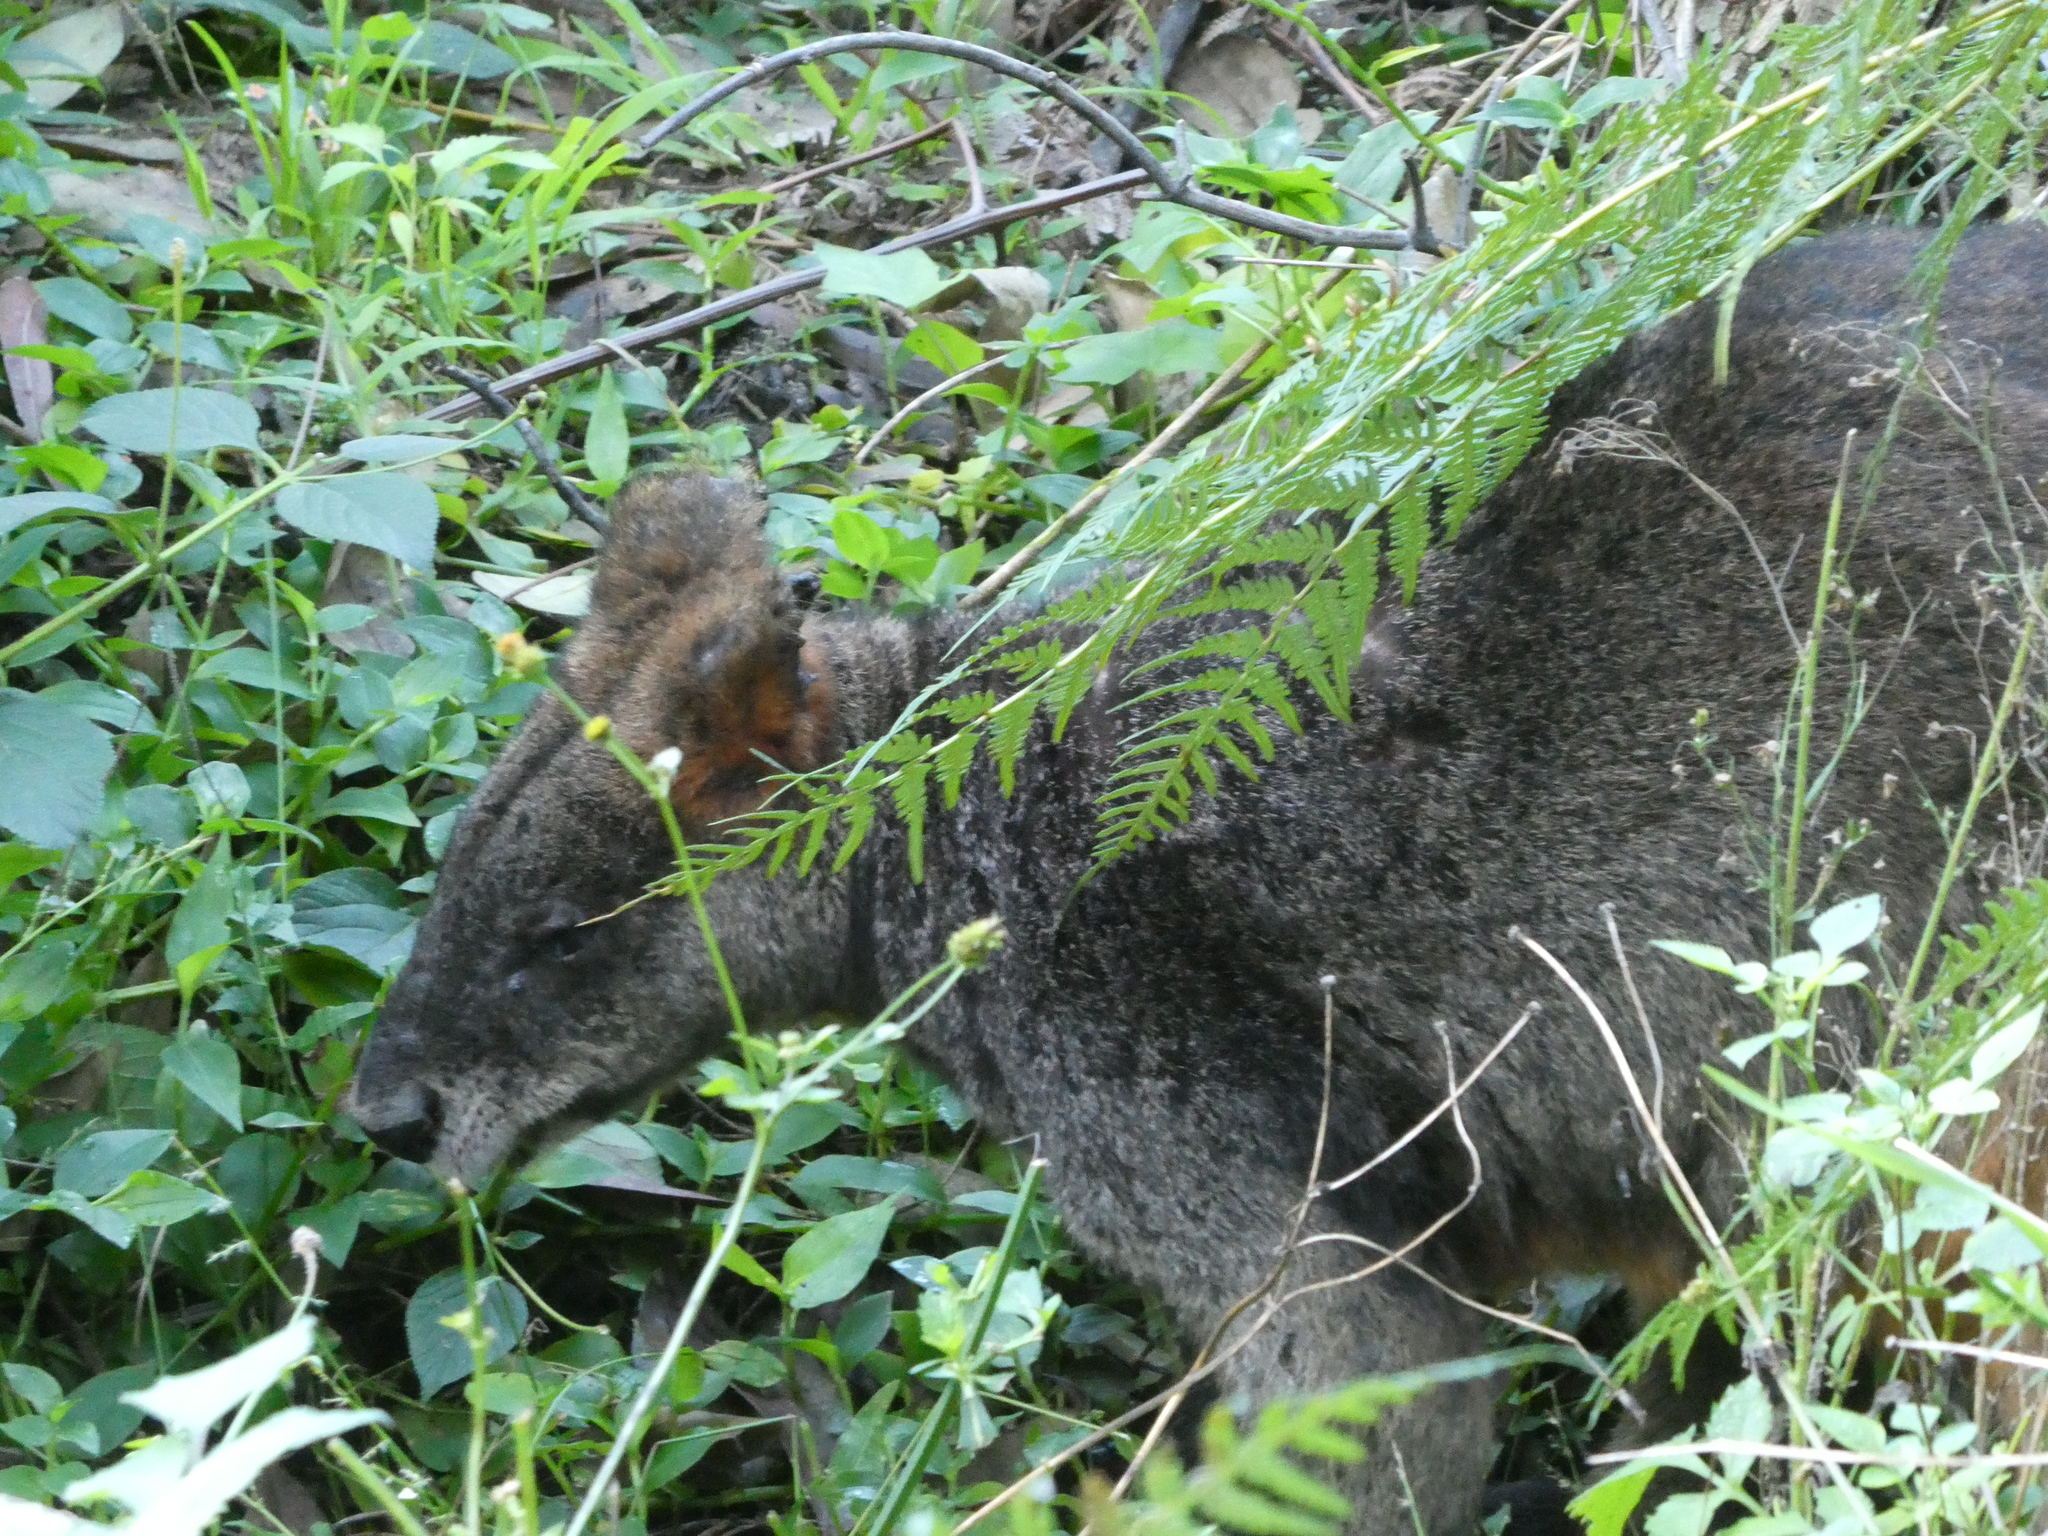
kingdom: Animalia
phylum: Chordata
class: Mammalia
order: Diprotodontia
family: Macropodidae
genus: Wallabia
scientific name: Wallabia bicolor
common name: Swamp wallaby
